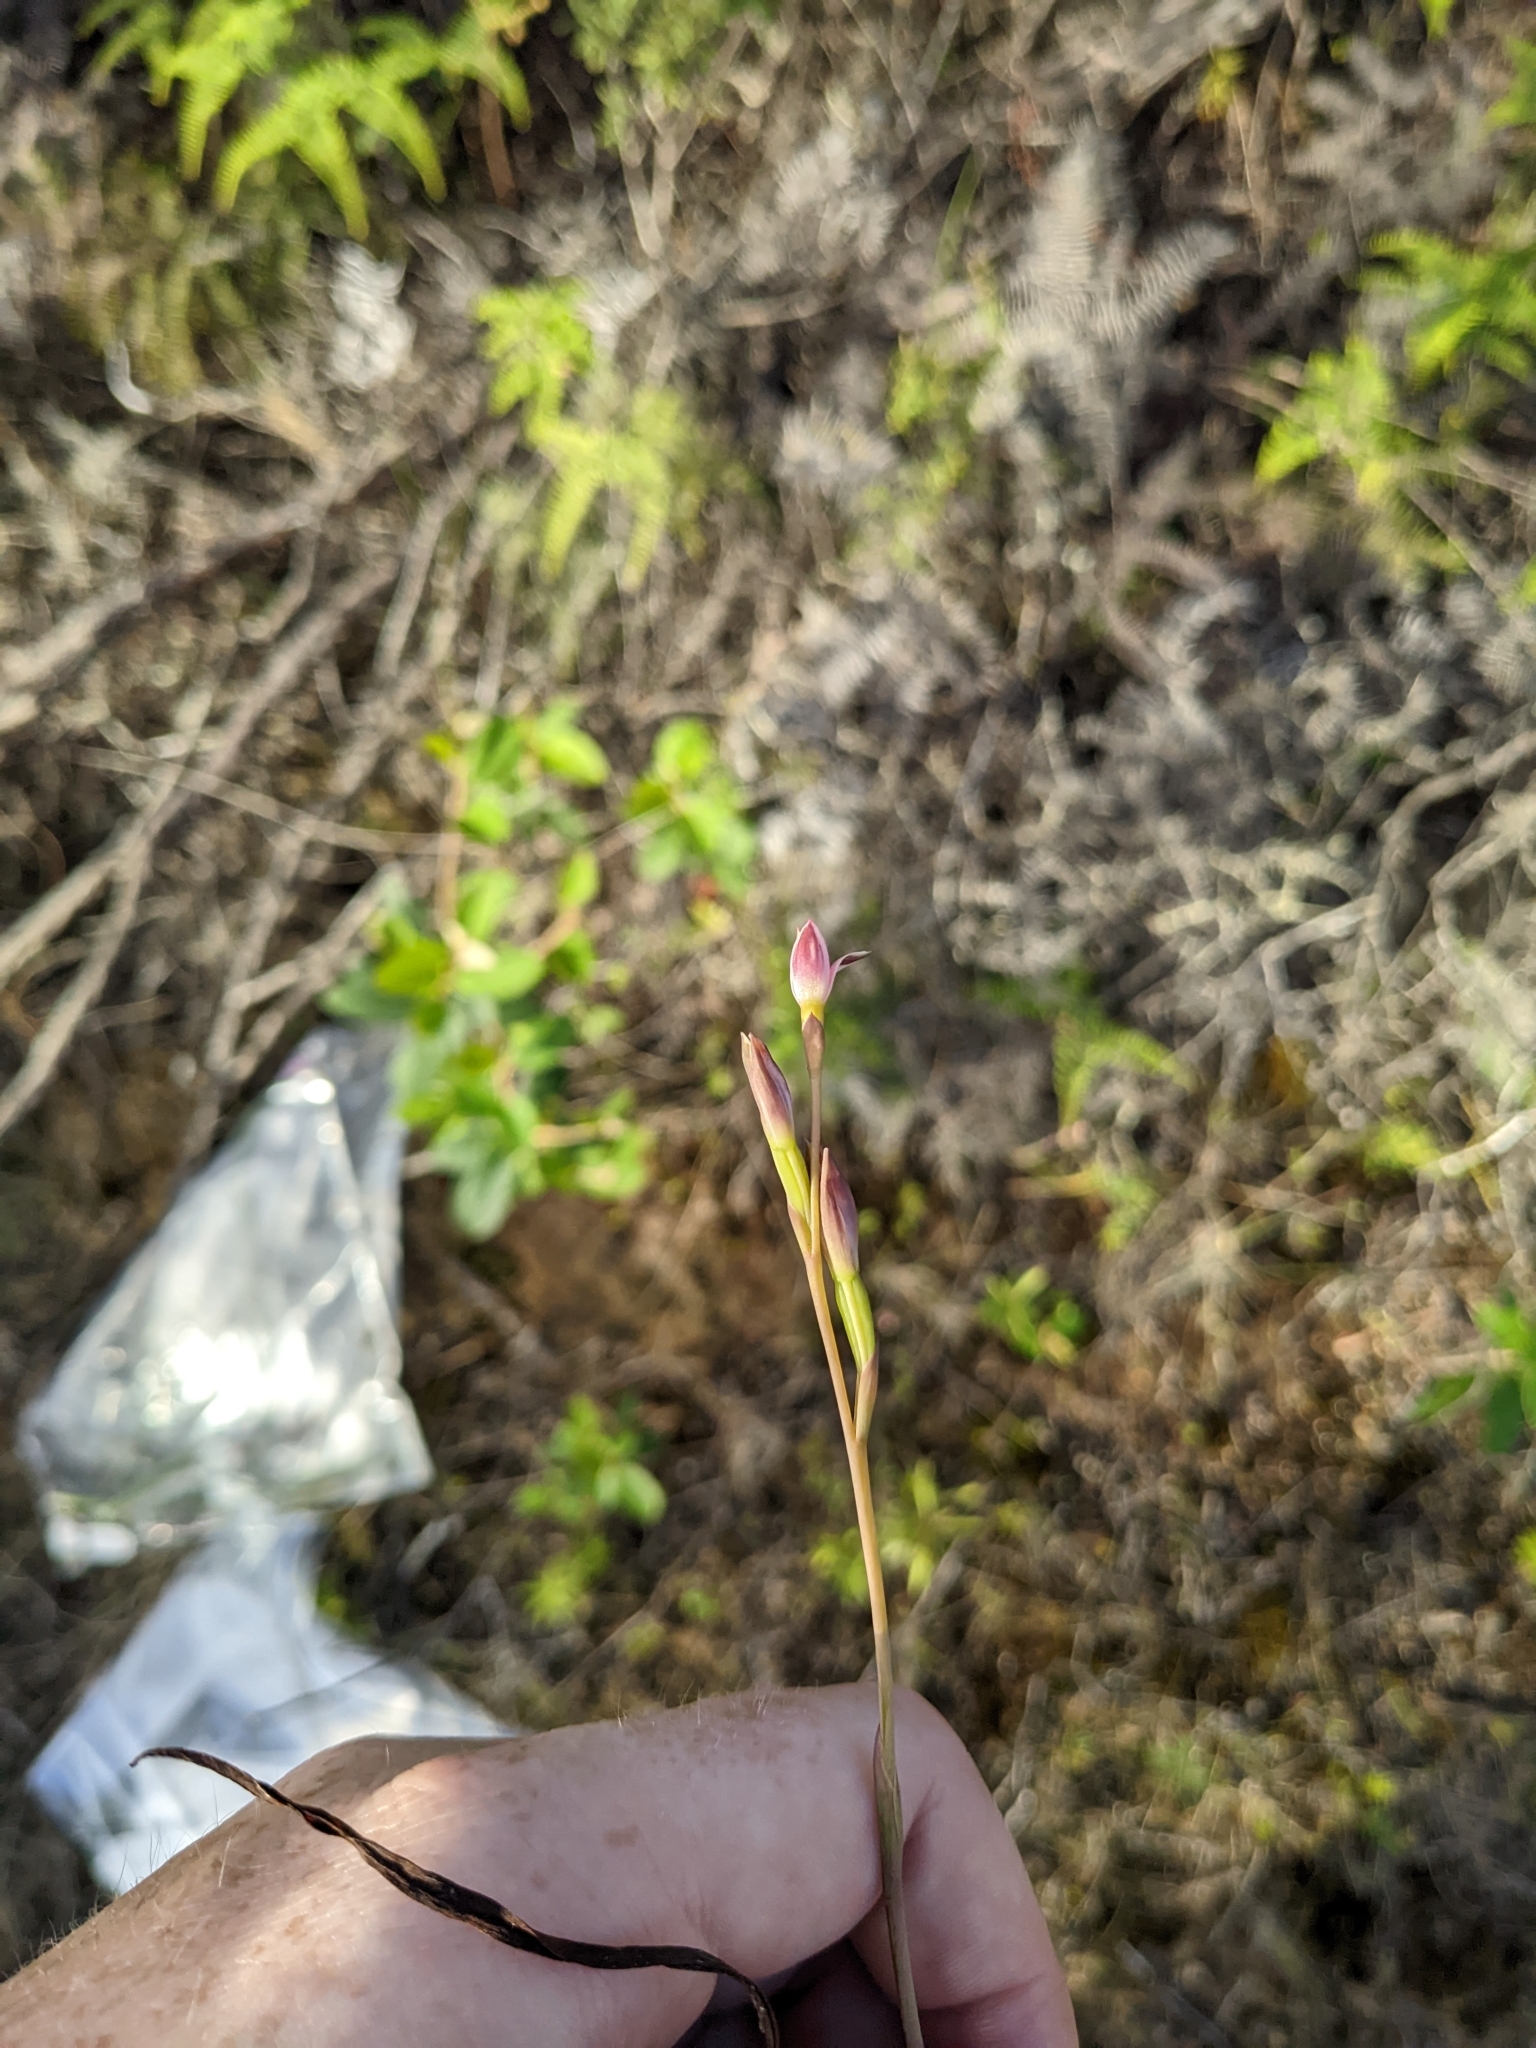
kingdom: Plantae
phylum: Tracheophyta
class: Liliopsida
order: Asparagales
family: Orchidaceae
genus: Thelymitra
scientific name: Thelymitra longifolia
